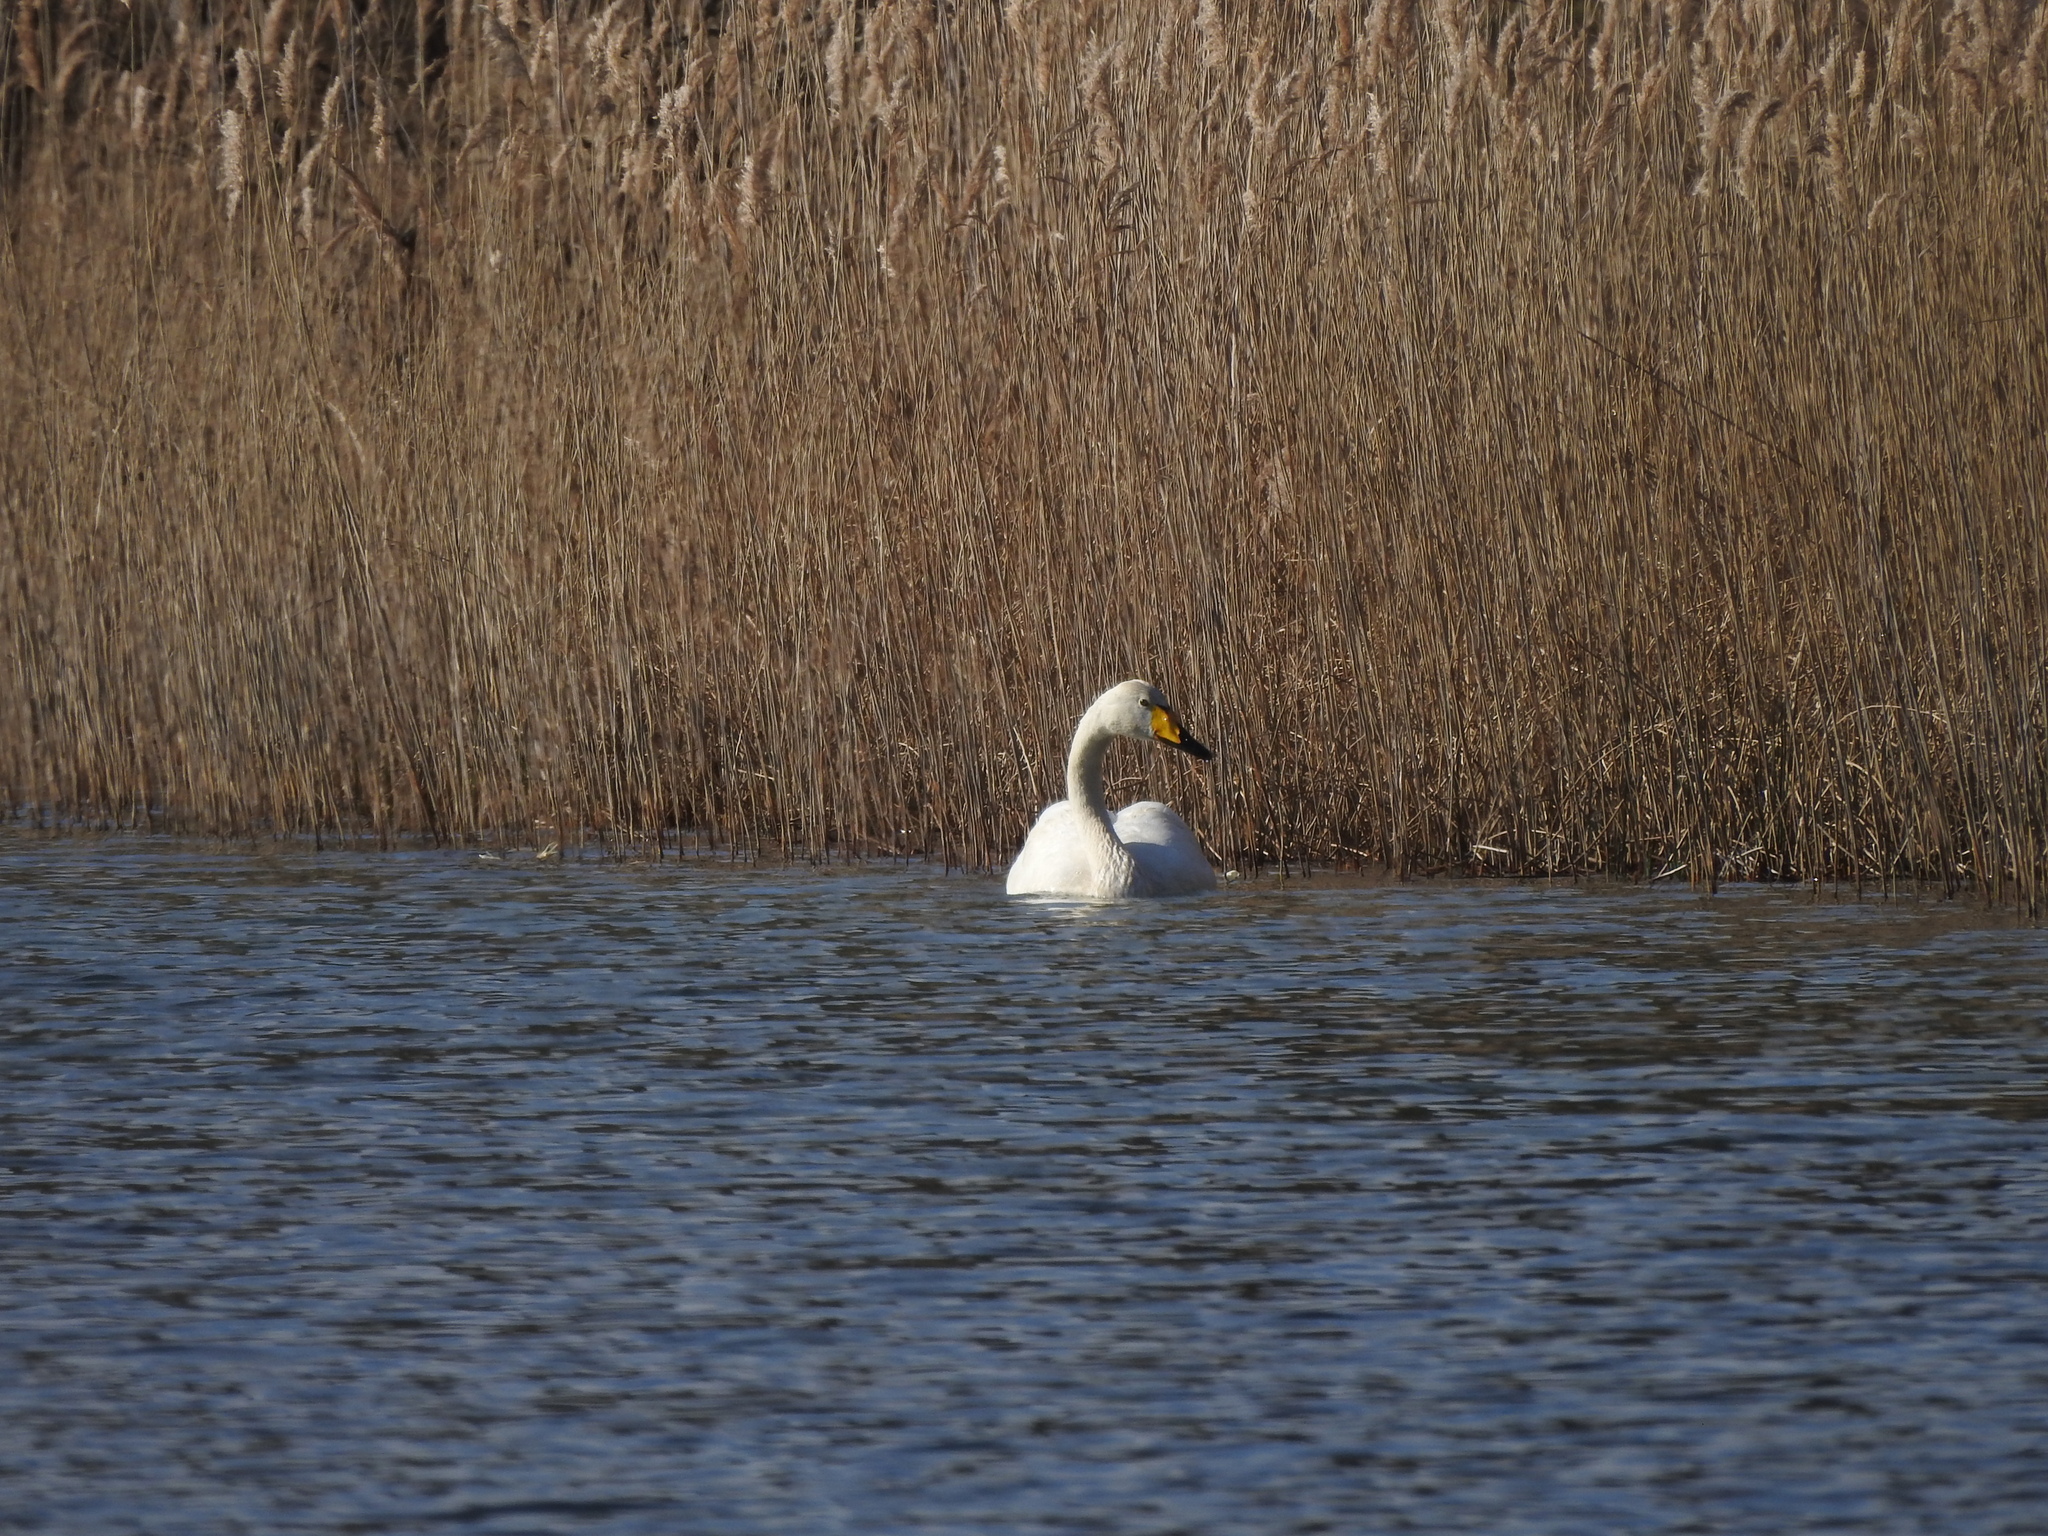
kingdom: Animalia
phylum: Chordata
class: Aves
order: Anseriformes
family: Anatidae
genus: Cygnus
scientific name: Cygnus cygnus
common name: Whooper swan
